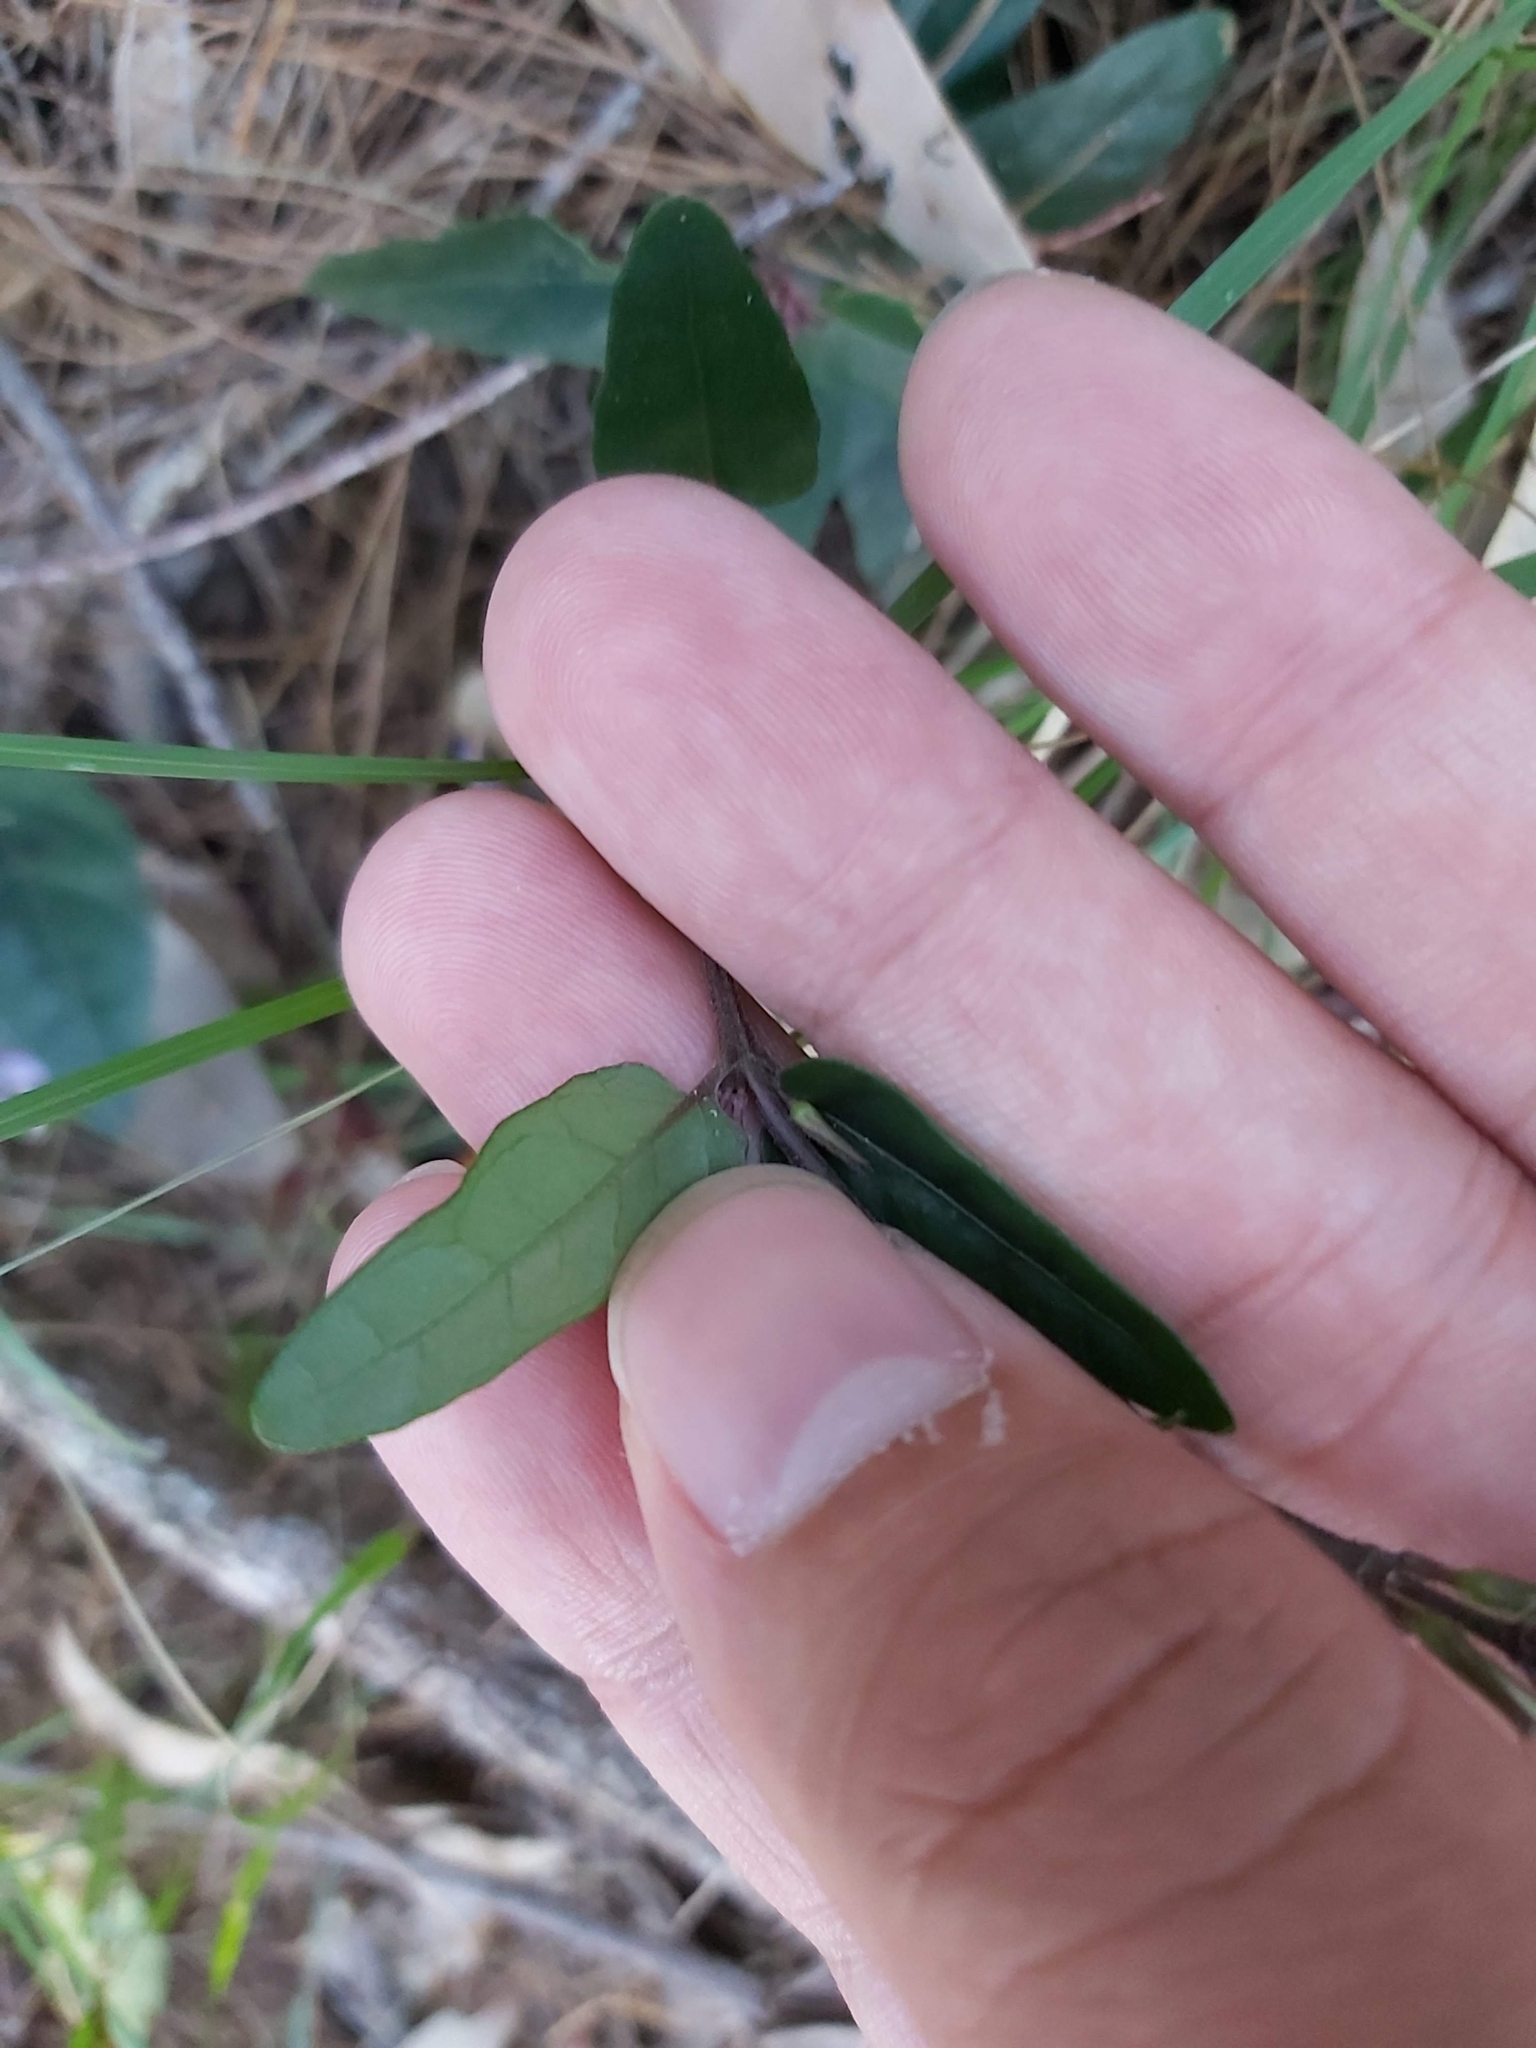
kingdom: Plantae
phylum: Tracheophyta
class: Magnoliopsida
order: Lamiales
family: Acanthaceae
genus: Pseuderanthemum
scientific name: Pseuderanthemum variabile
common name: Night and afternoon
